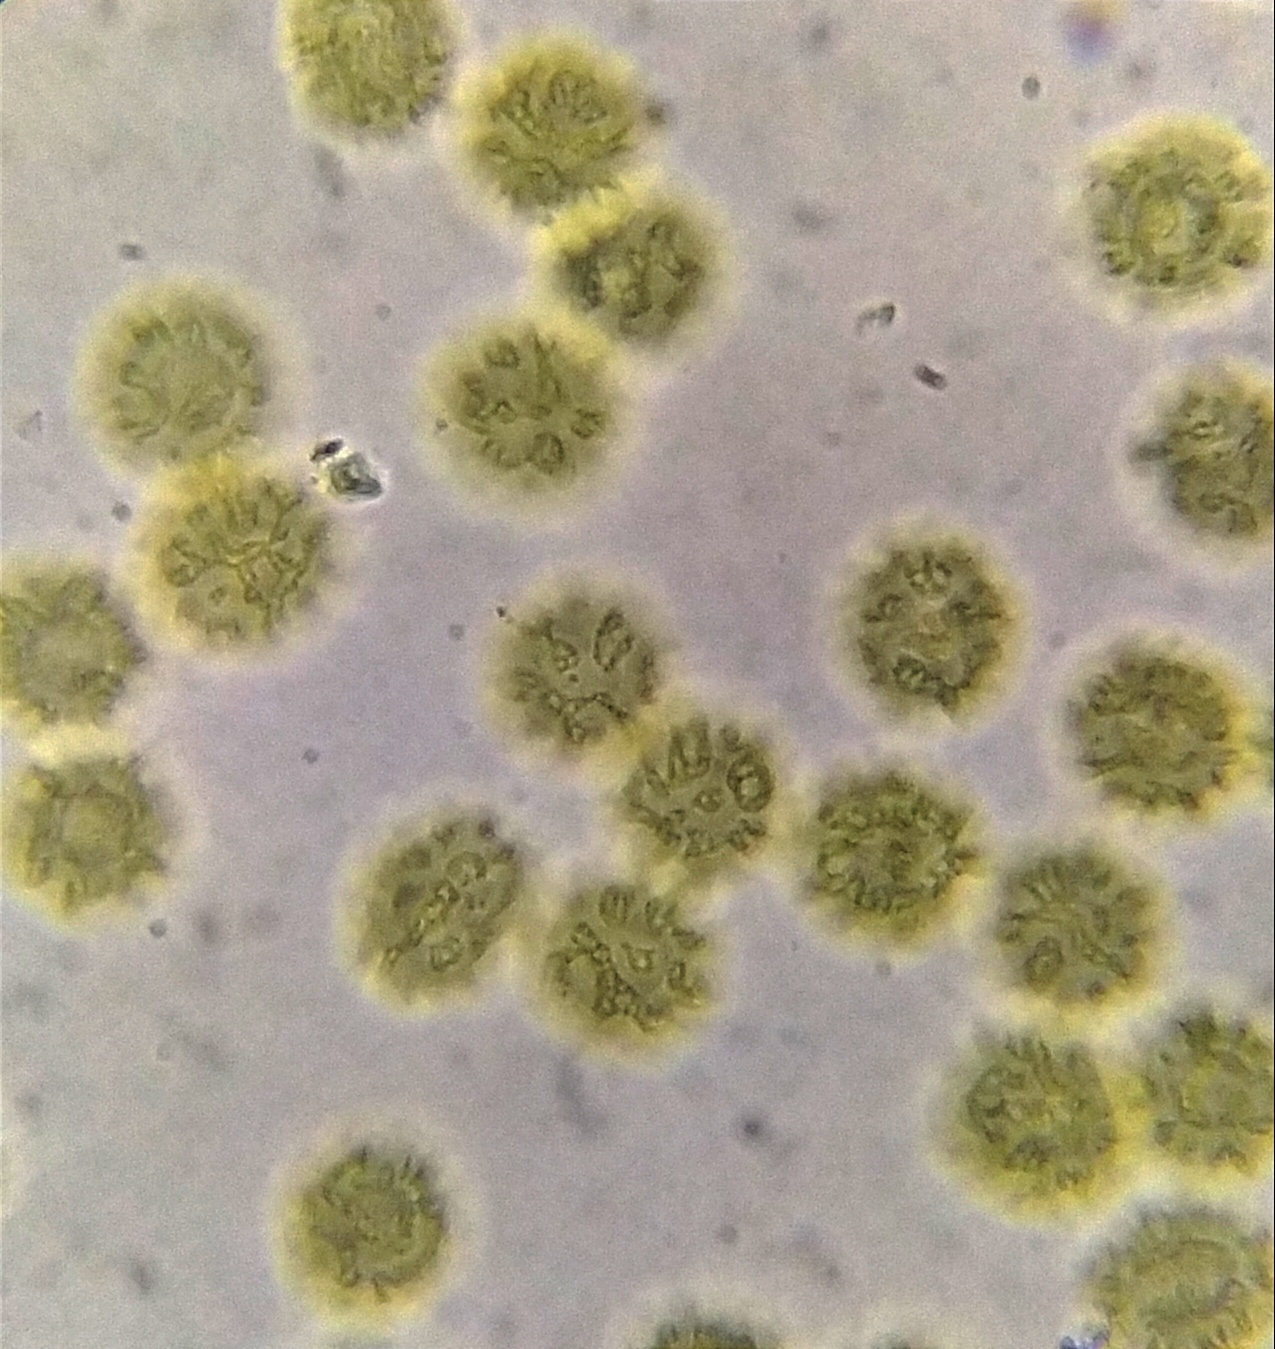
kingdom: Protozoa
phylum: Mycetozoa
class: Myxomycetes
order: Trichiales
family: Trichiaceae
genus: Oligonema
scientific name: Oligonema persimile
